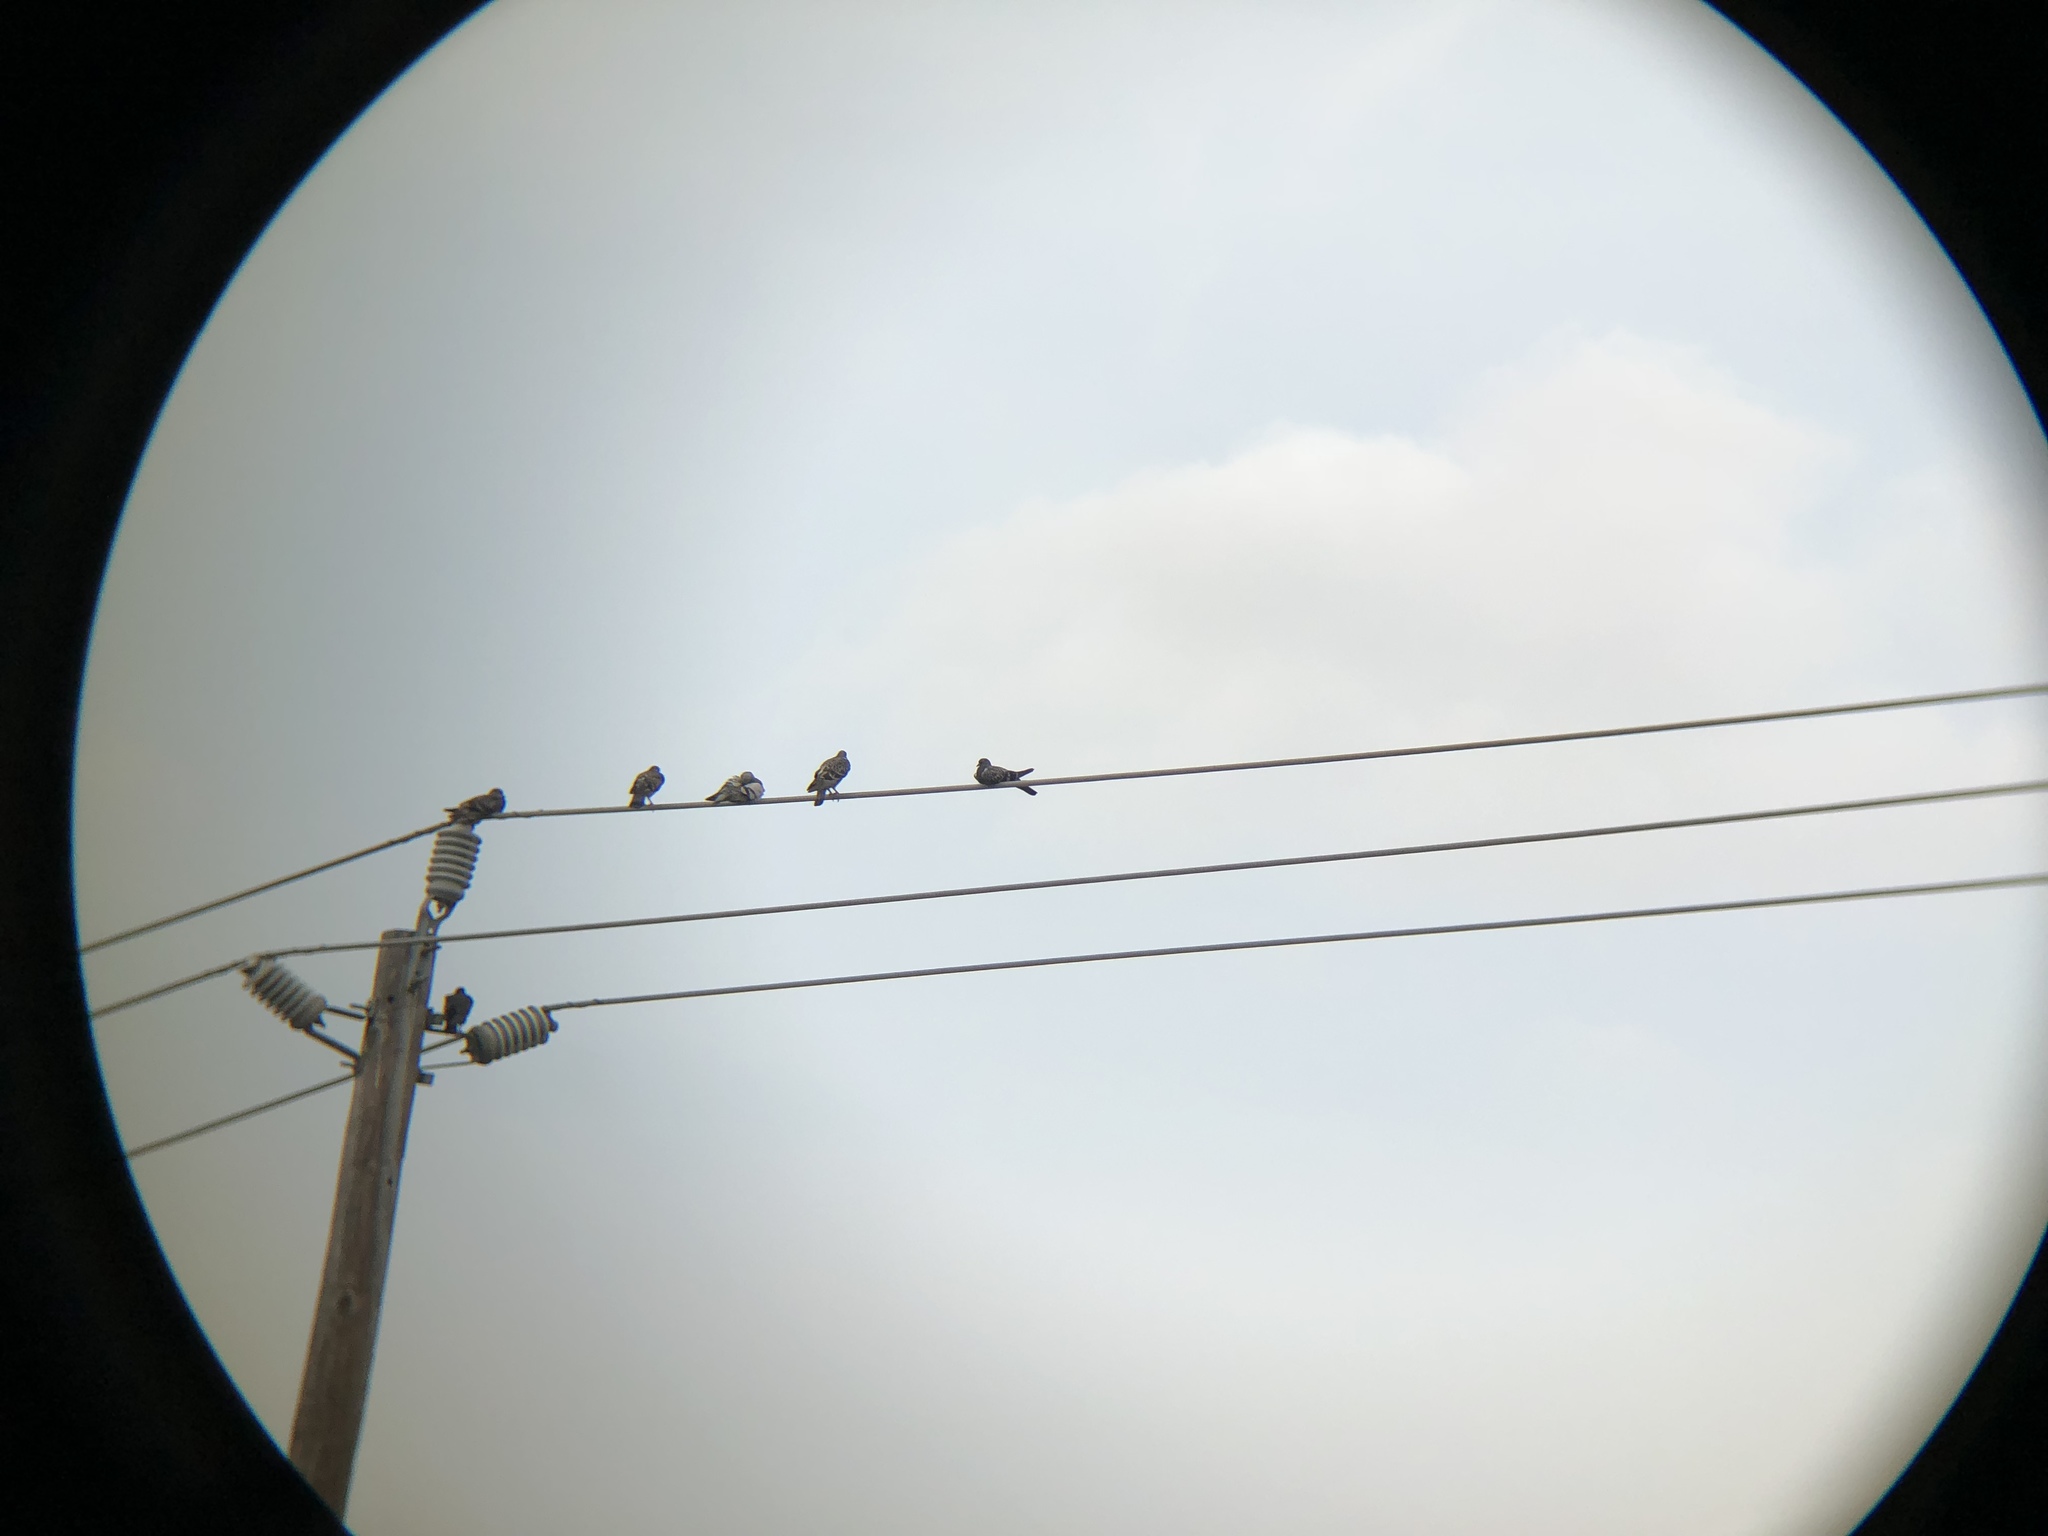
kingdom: Animalia
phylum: Chordata
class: Aves
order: Columbiformes
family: Columbidae
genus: Columba
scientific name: Columba livia
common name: Rock pigeon
